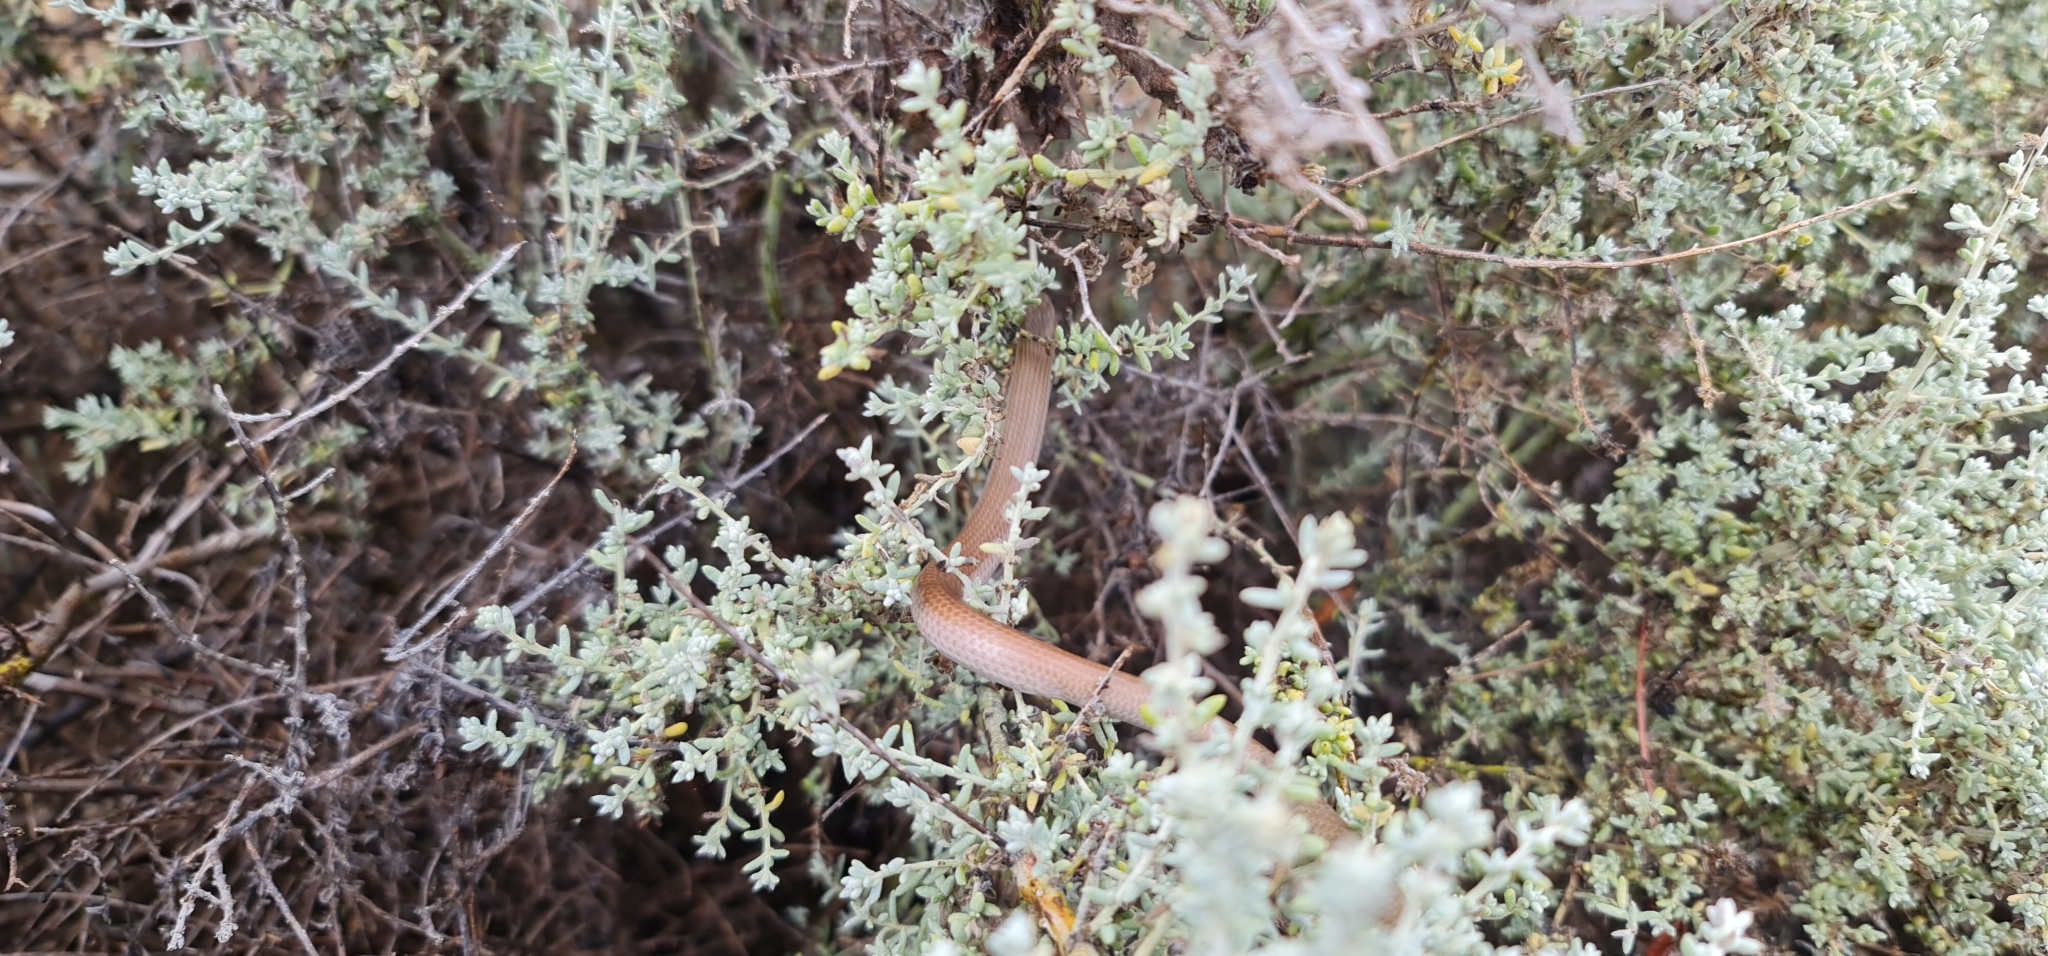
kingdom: Animalia
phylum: Chordata
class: Squamata
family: Pygopodidae
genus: Delma
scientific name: Delma molleri
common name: Gulfs delma
